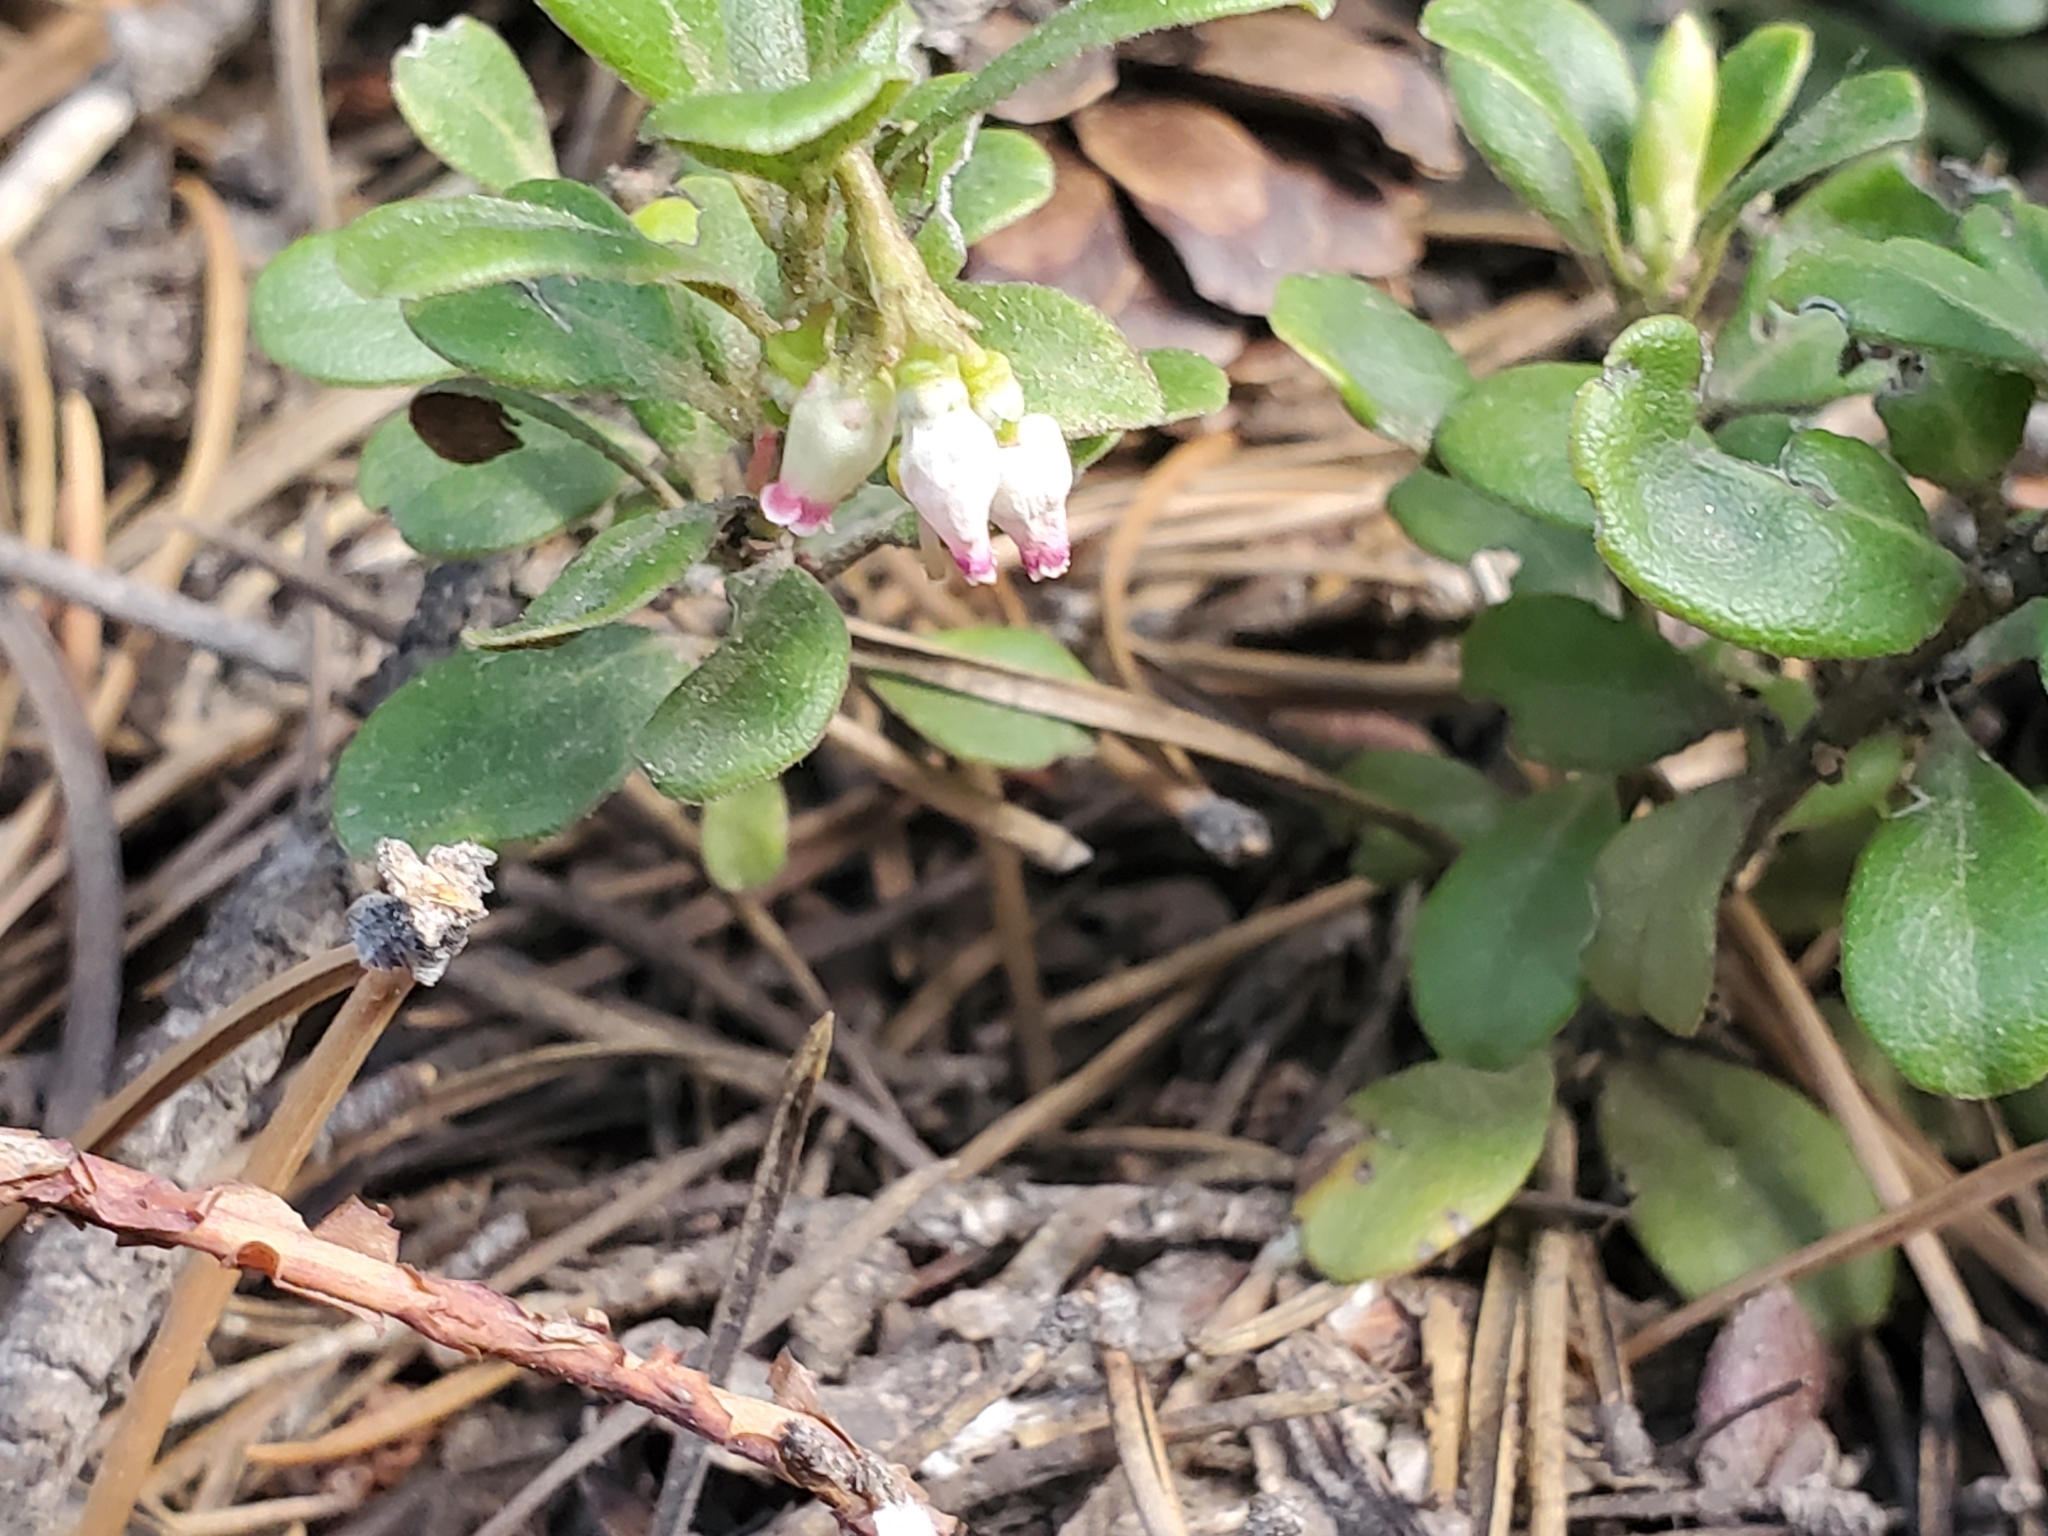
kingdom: Plantae
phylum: Tracheophyta
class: Magnoliopsida
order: Ericales
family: Ericaceae
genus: Arctostaphylos
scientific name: Arctostaphylos uva-ursi
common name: Bearberry
